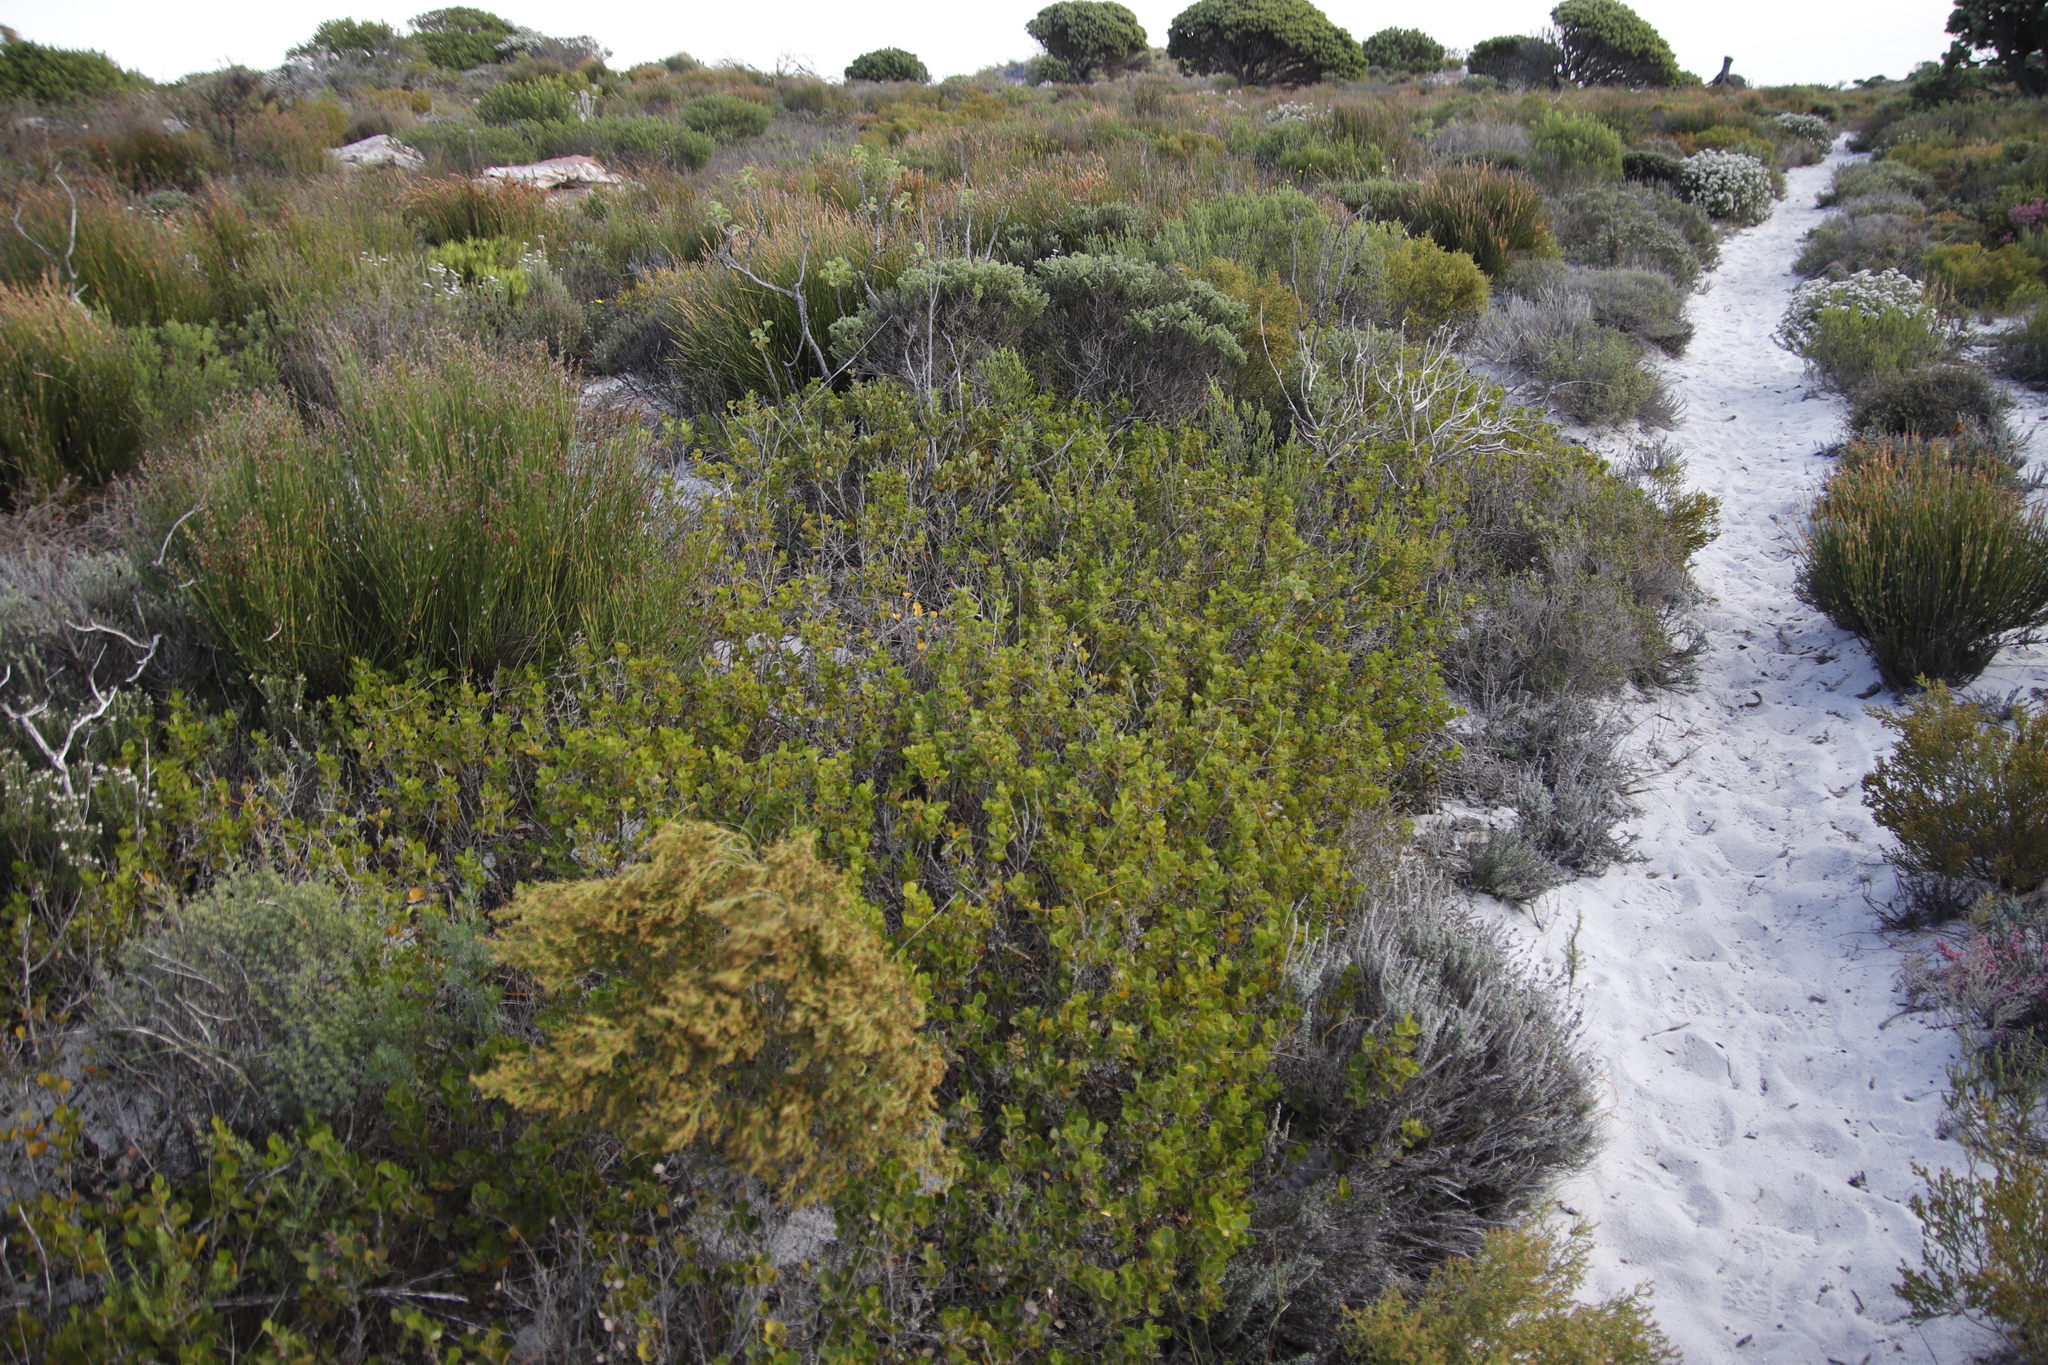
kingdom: Plantae
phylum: Tracheophyta
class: Magnoliopsida
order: Sapindales
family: Anacardiaceae
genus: Searsia
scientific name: Searsia lucida
